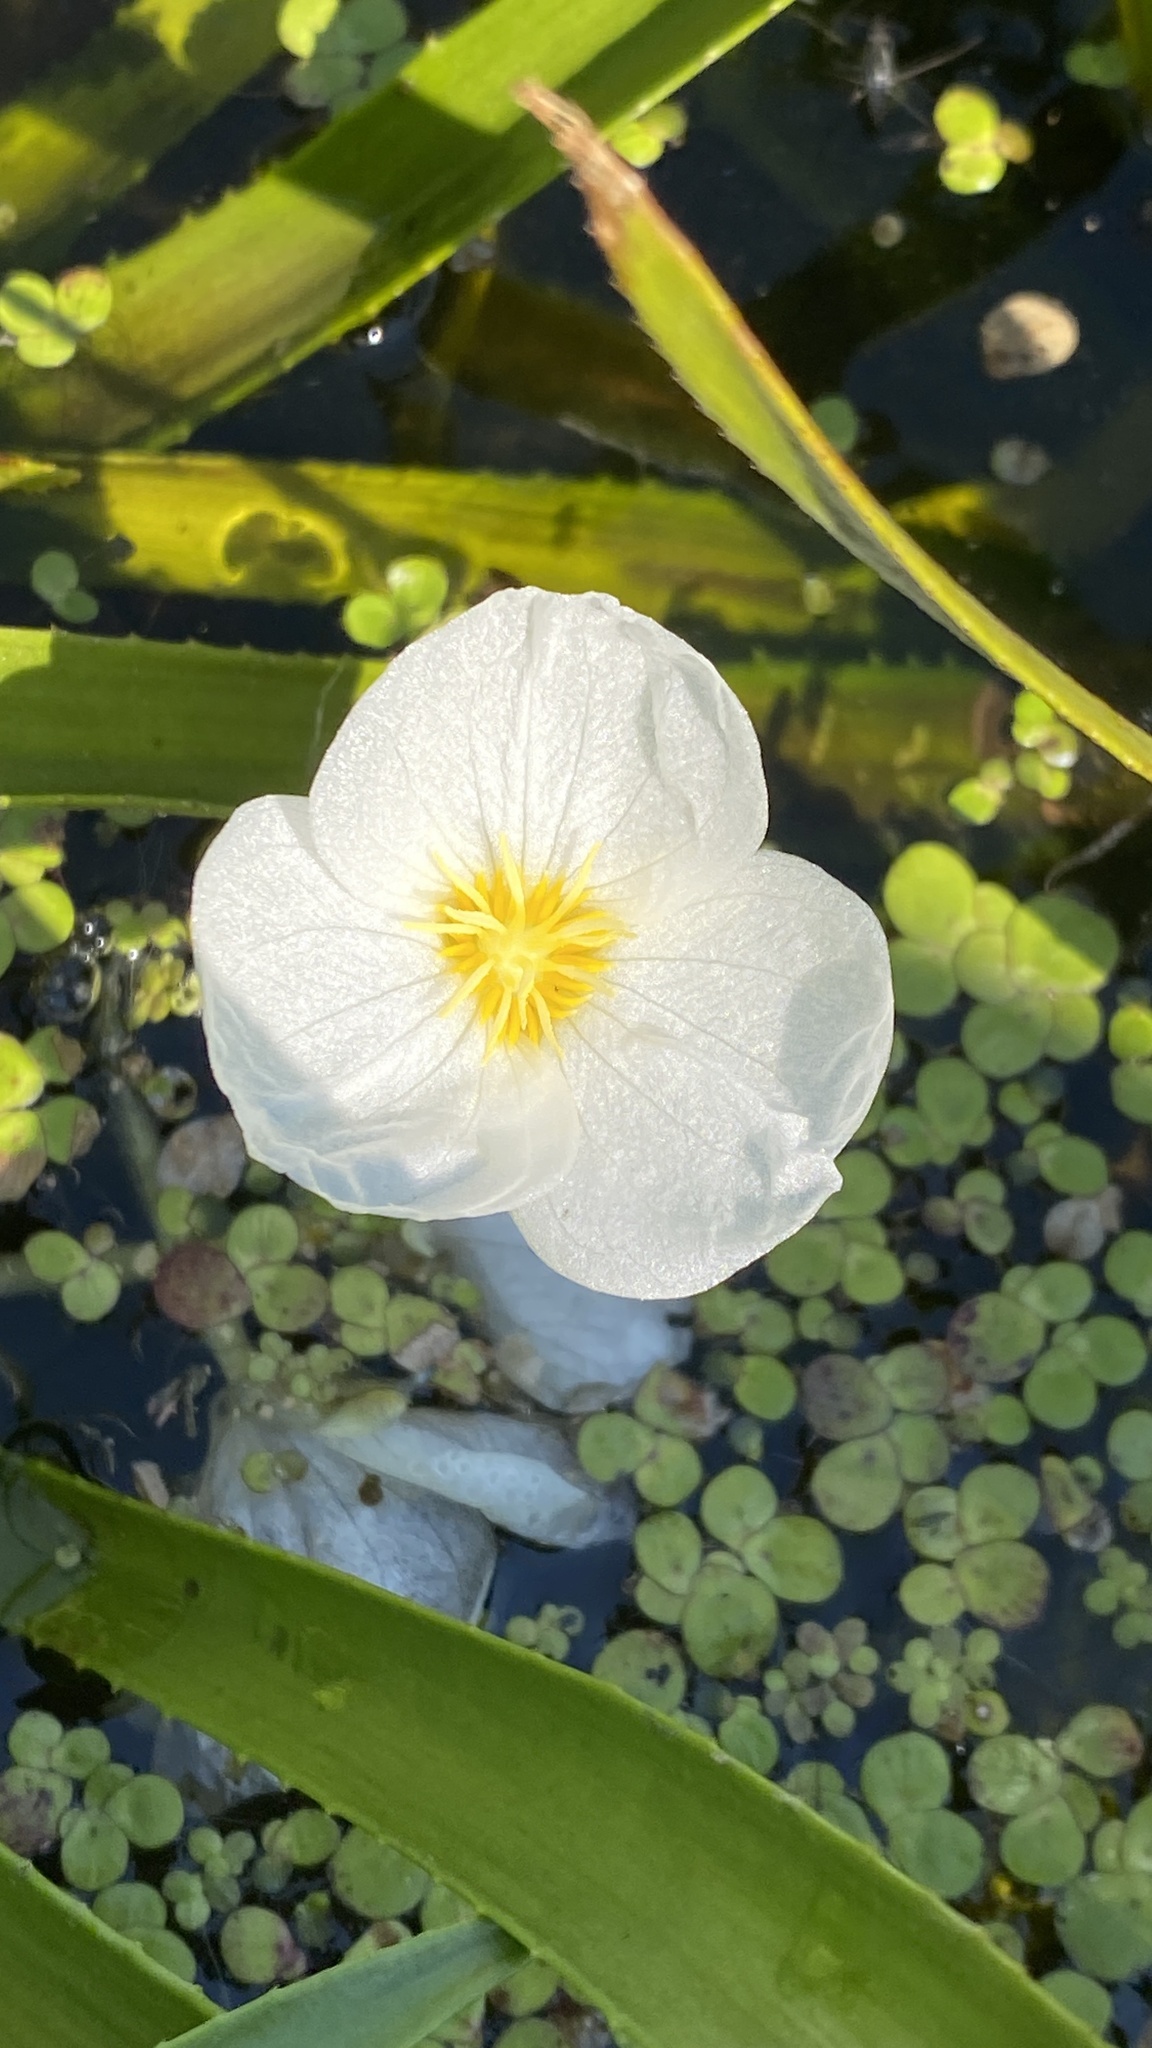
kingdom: Plantae
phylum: Tracheophyta
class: Liliopsida
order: Alismatales
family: Hydrocharitaceae
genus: Stratiotes
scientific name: Stratiotes aloides
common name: Water-soldier
